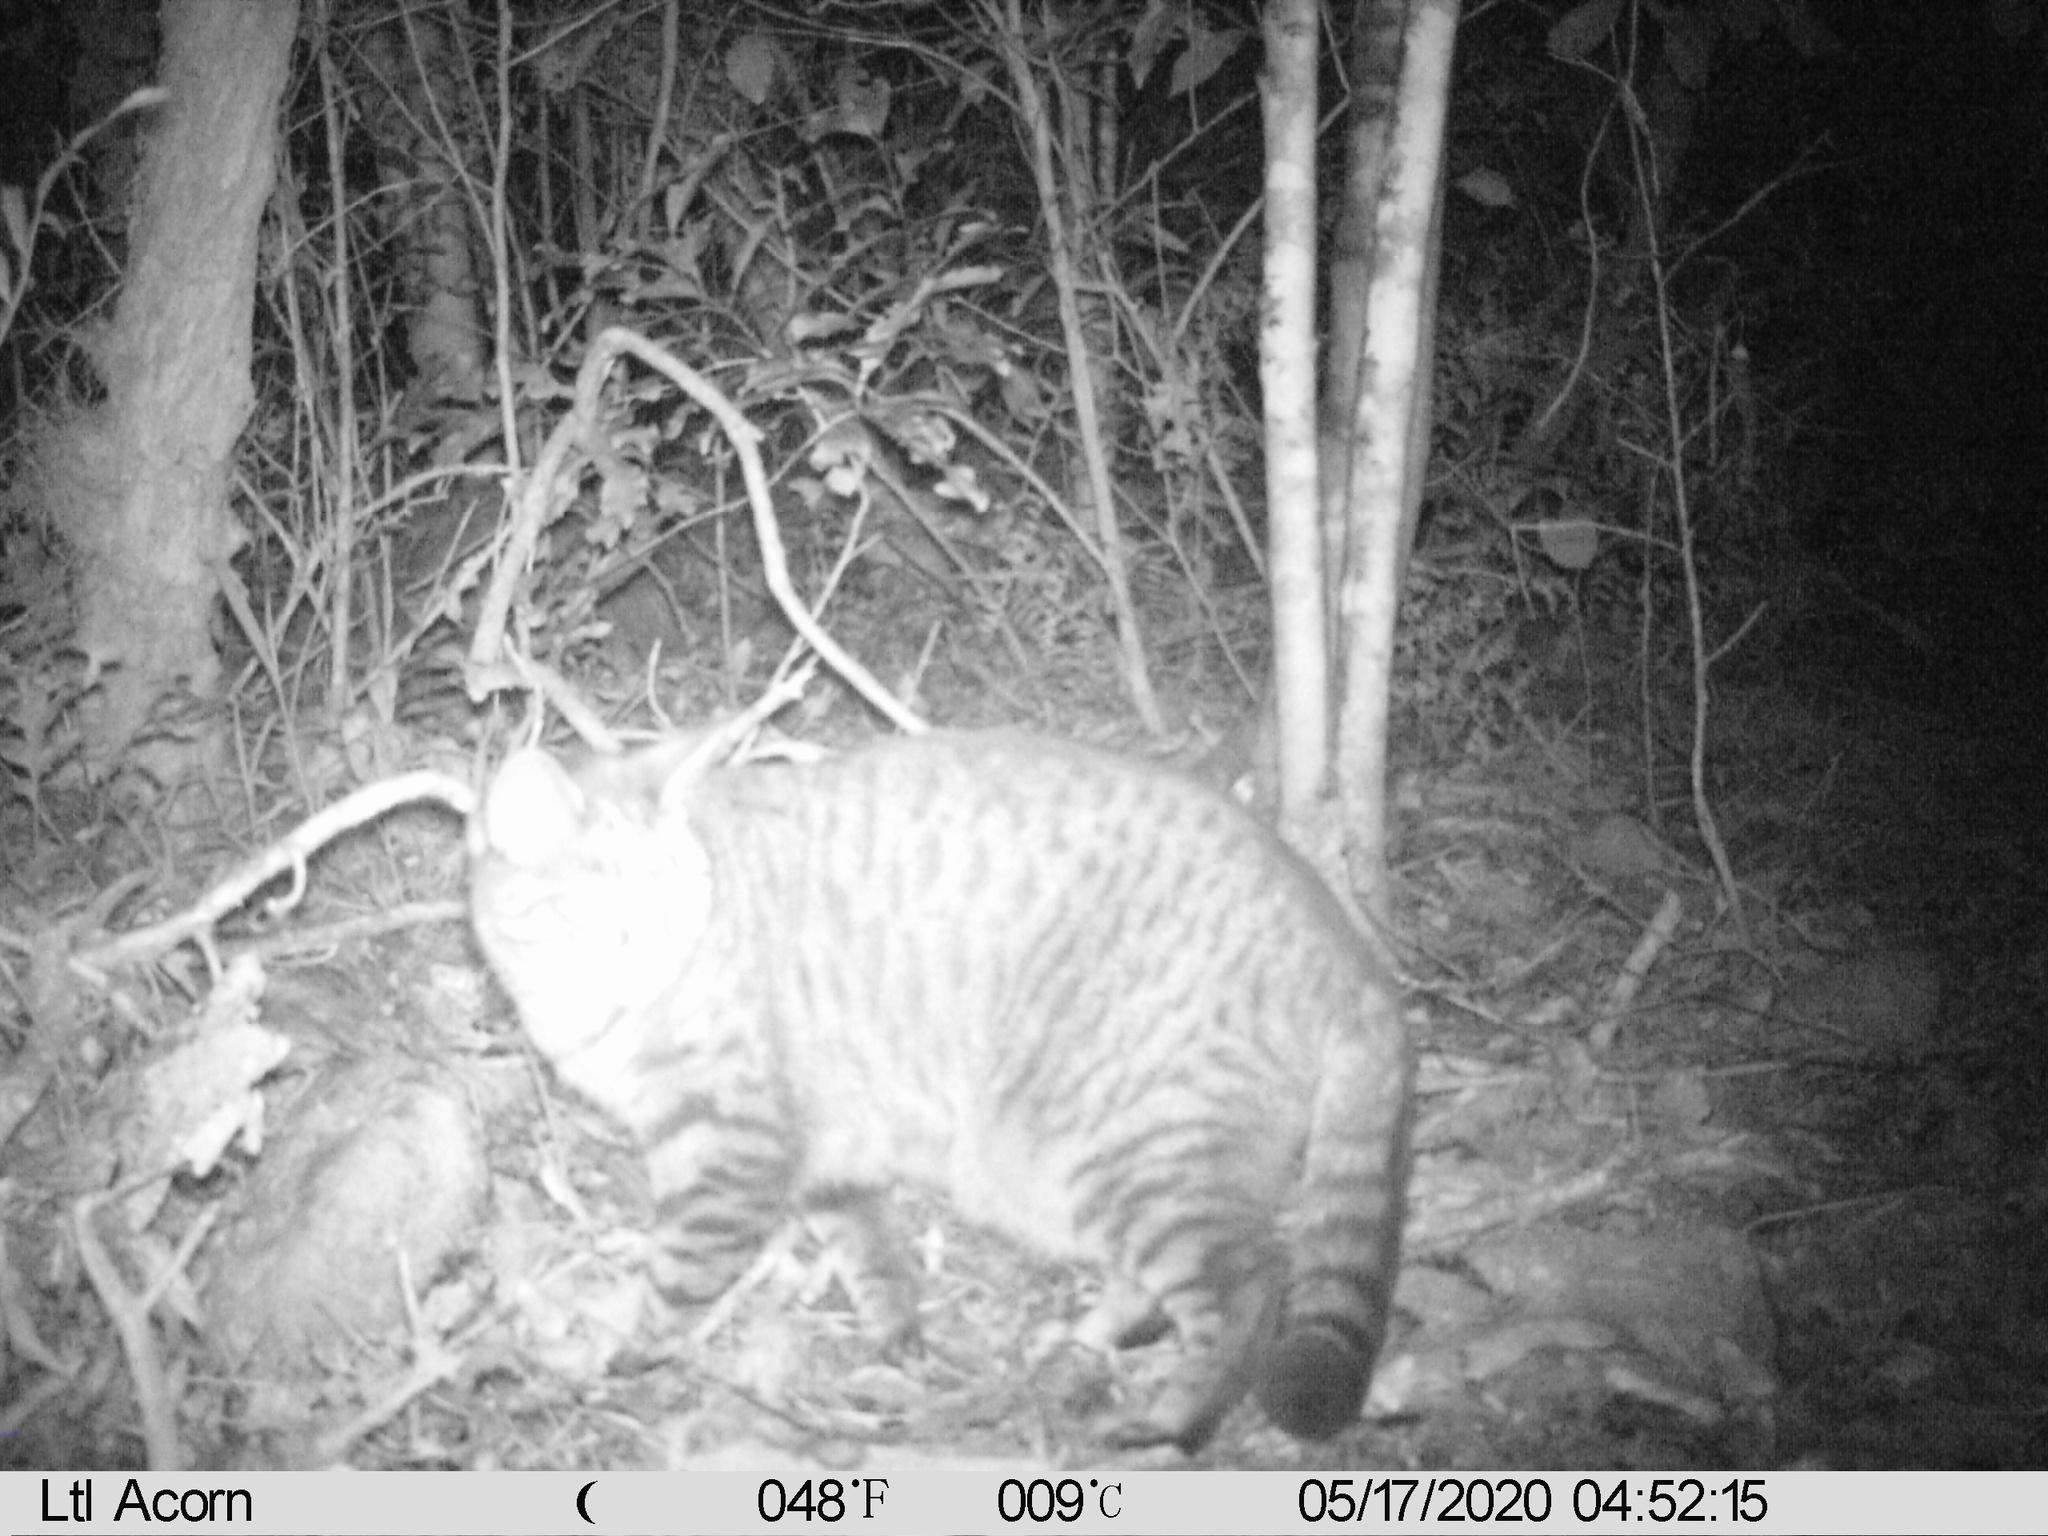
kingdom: Animalia
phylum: Chordata
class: Mammalia
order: Carnivora
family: Felidae
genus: Felis
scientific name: Felis catus
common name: Domestic cat
